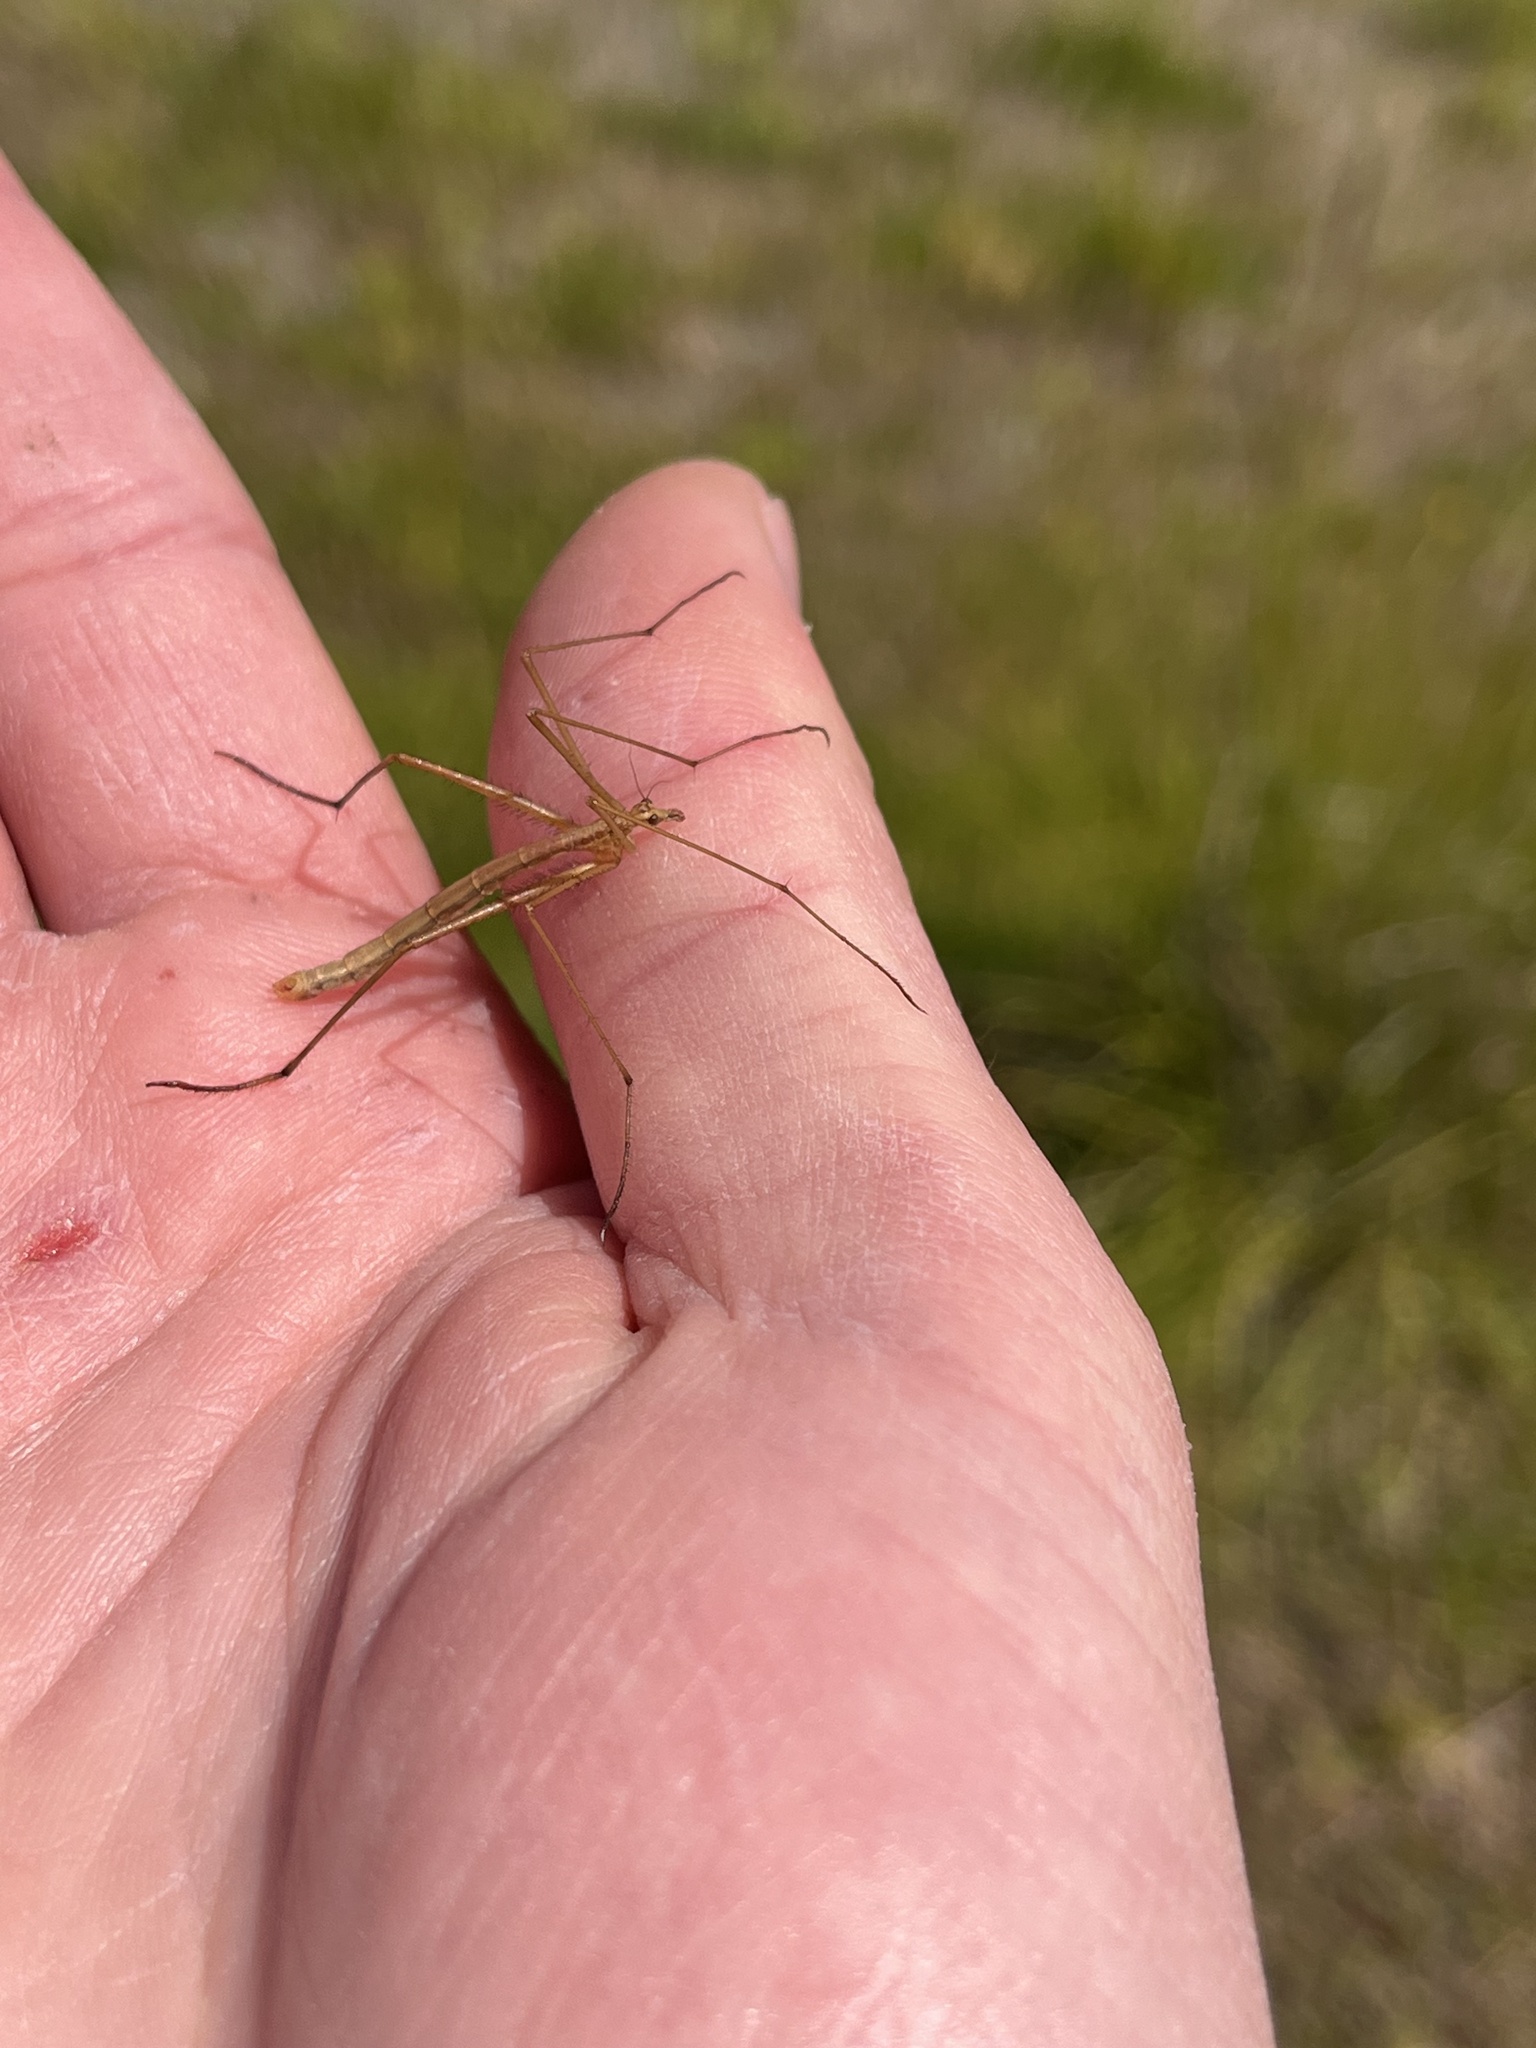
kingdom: Animalia
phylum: Arthropoda
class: Insecta
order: Mecoptera
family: Bittacidae
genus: Apterobittacus
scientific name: Apterobittacus apterus
